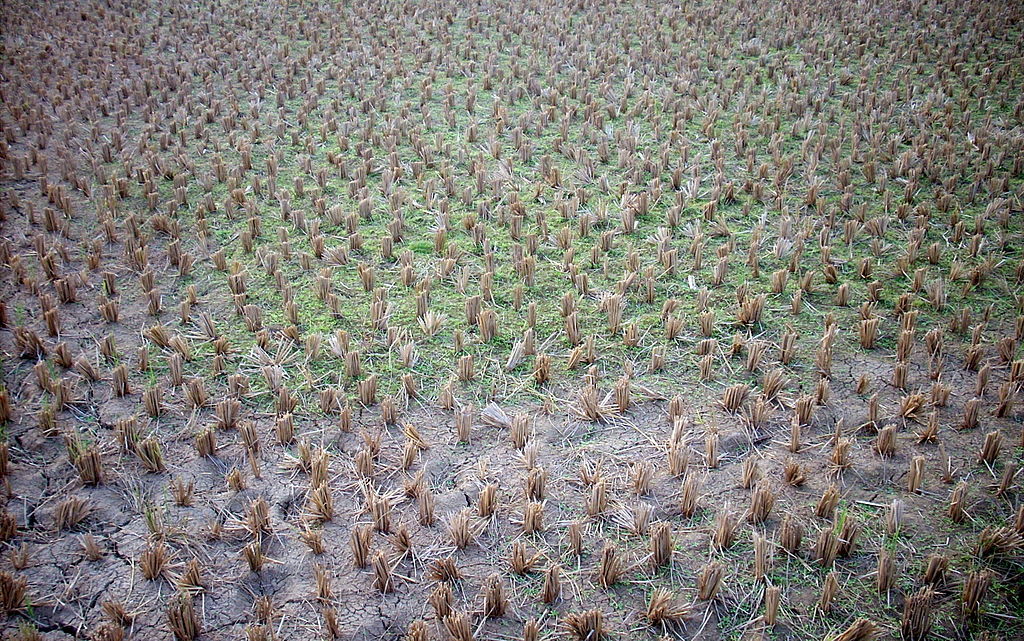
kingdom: Plantae
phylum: Tracheophyta
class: Liliopsida
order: Poales
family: Poaceae
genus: Oryza
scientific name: Oryza sativa
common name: Rice
